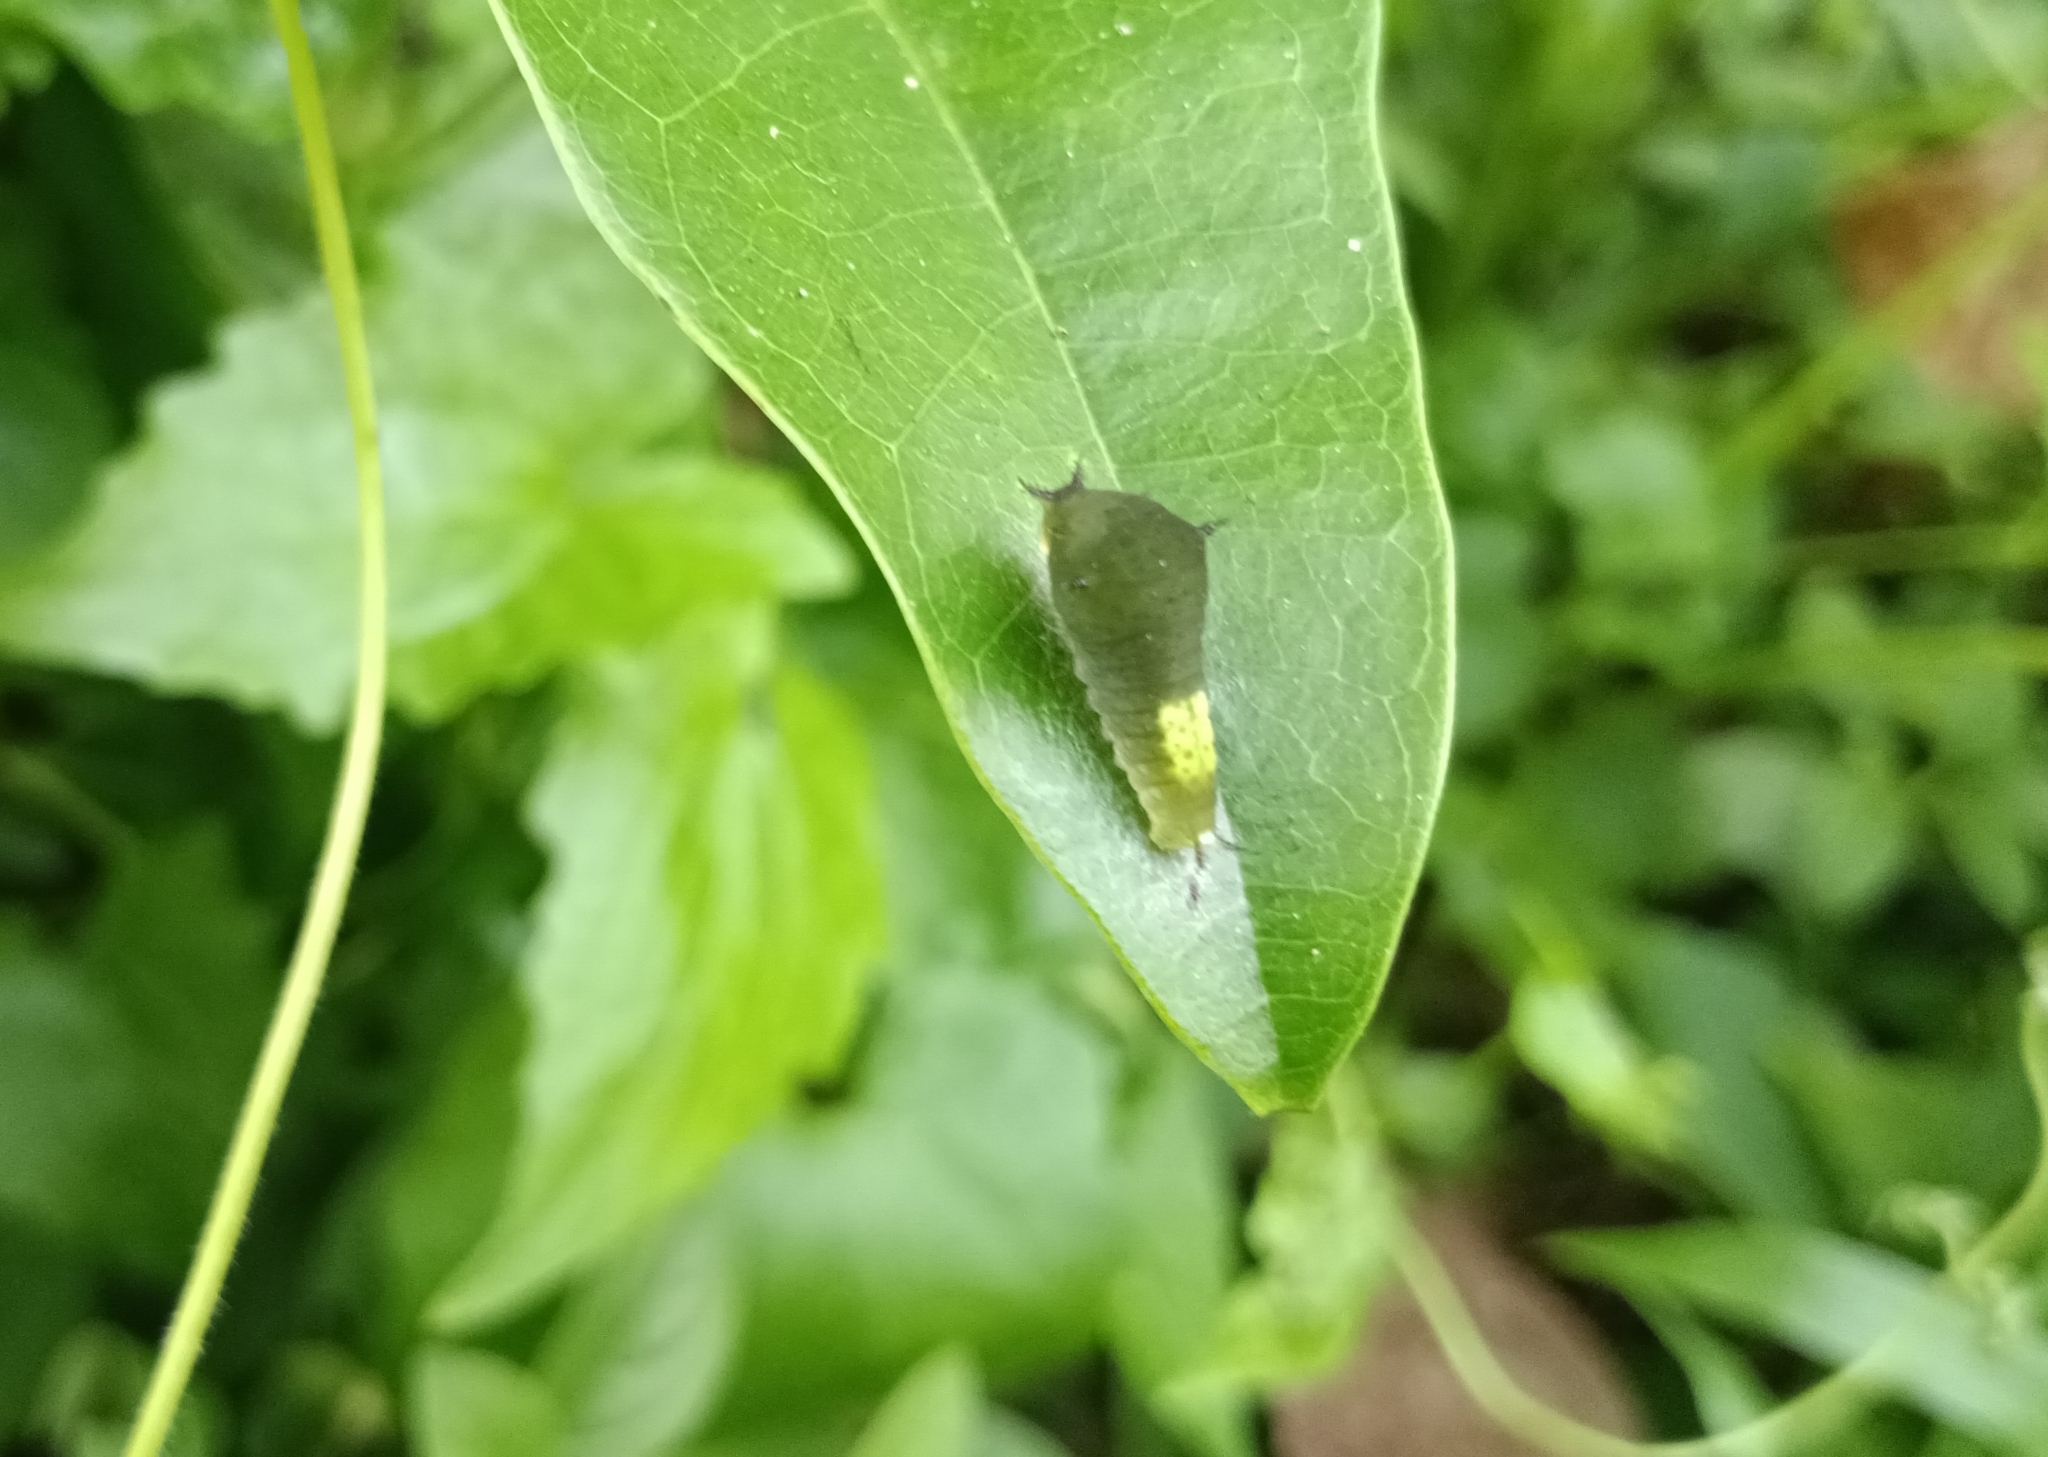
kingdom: Animalia
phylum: Arthropoda
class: Insecta
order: Lepidoptera
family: Papilionidae
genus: Graphium
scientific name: Graphium agamemnon
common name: Tailed jay
